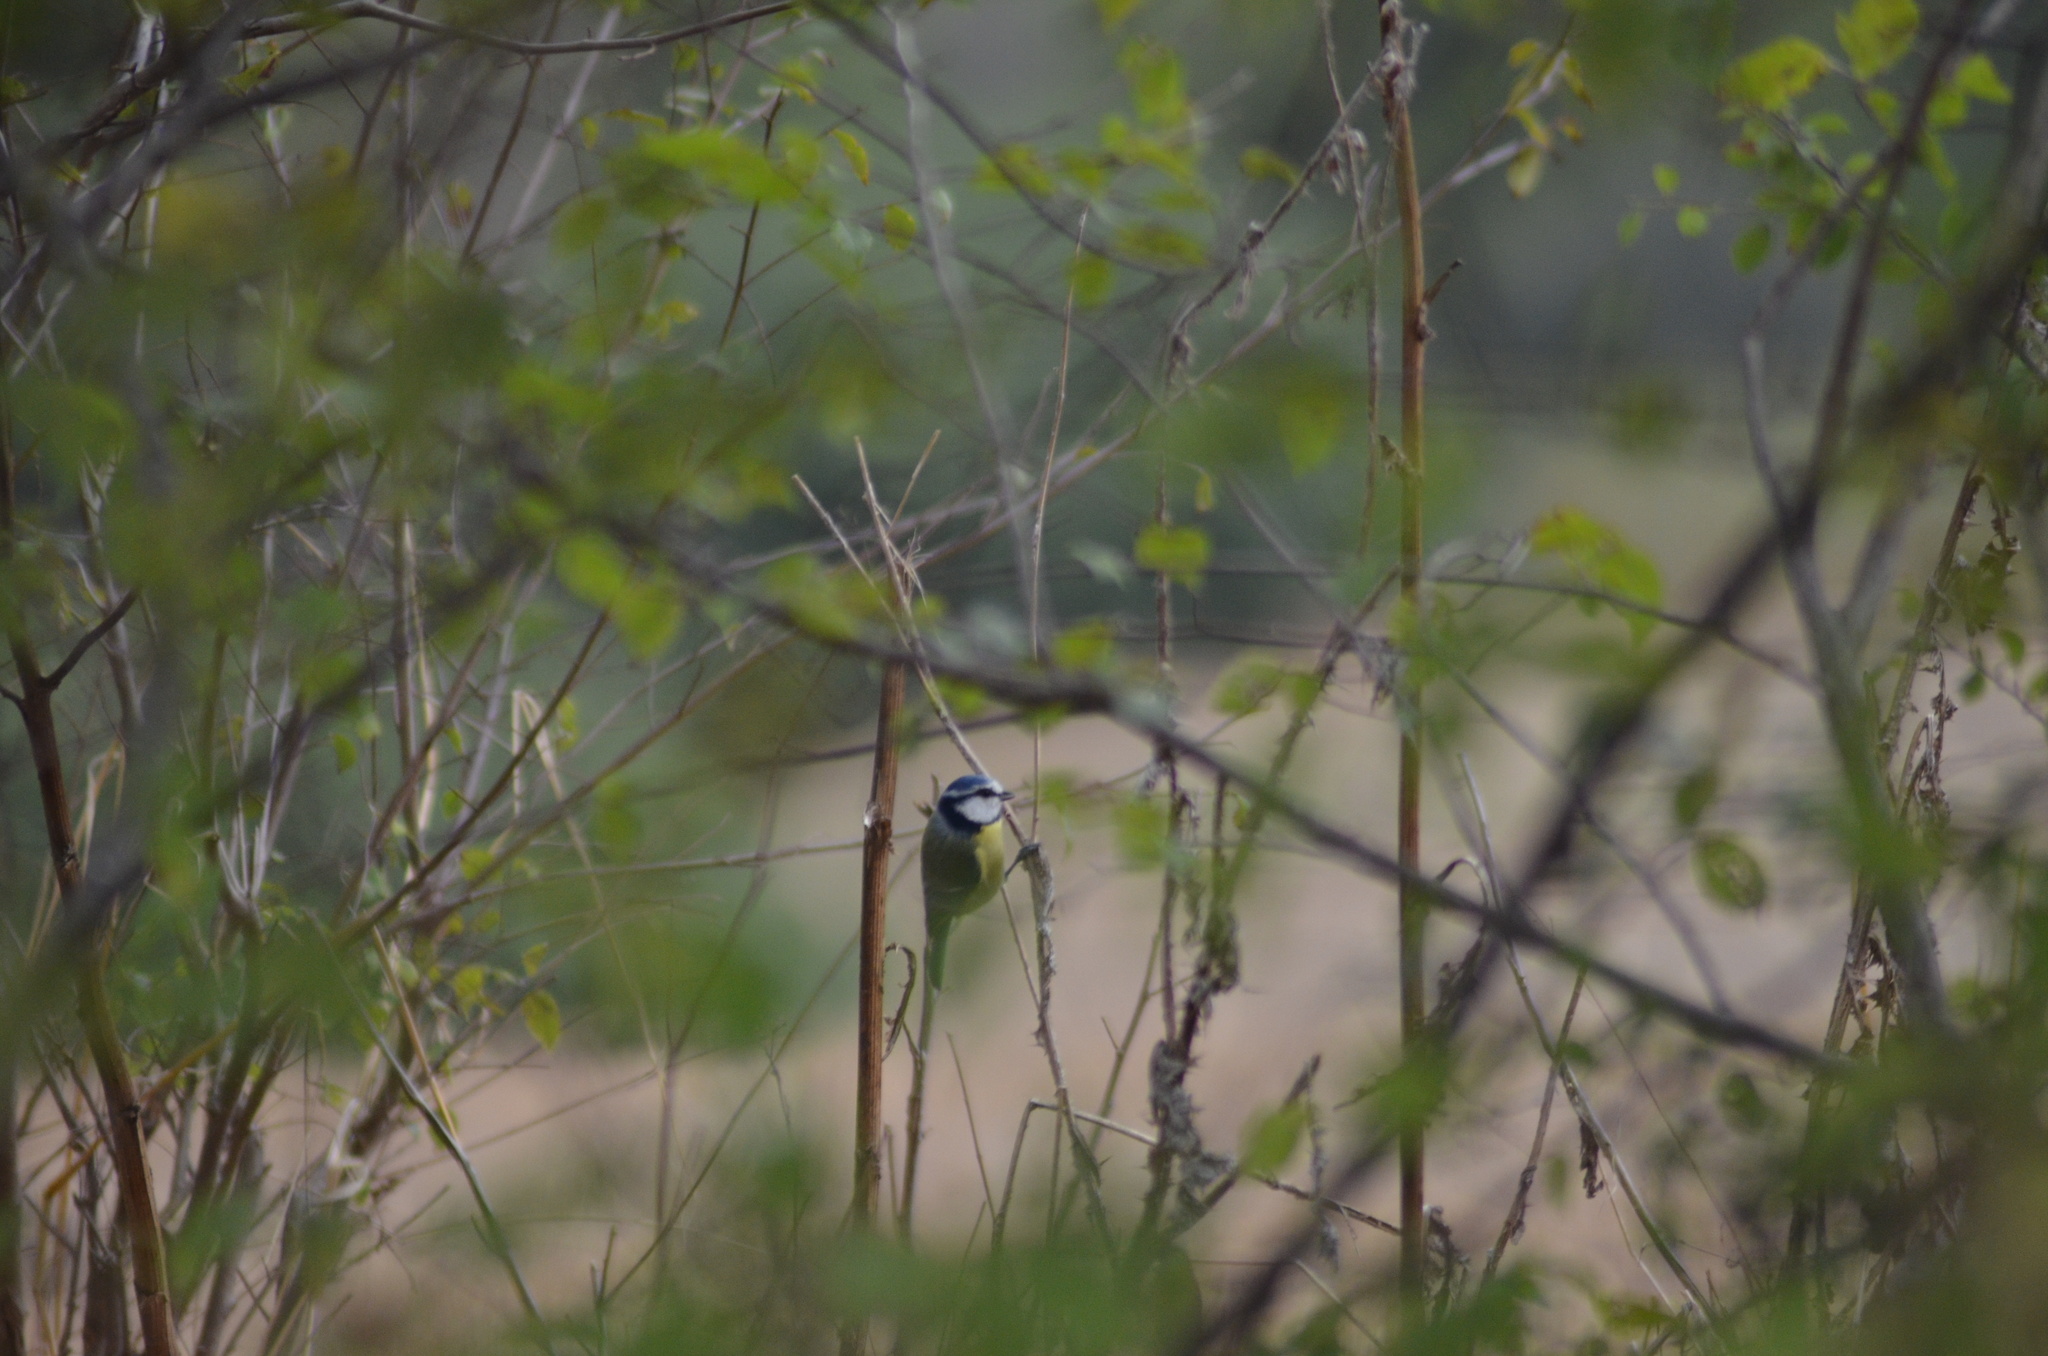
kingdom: Animalia
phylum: Chordata
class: Aves
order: Passeriformes
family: Paridae
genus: Cyanistes
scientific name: Cyanistes caeruleus
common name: Eurasian blue tit
